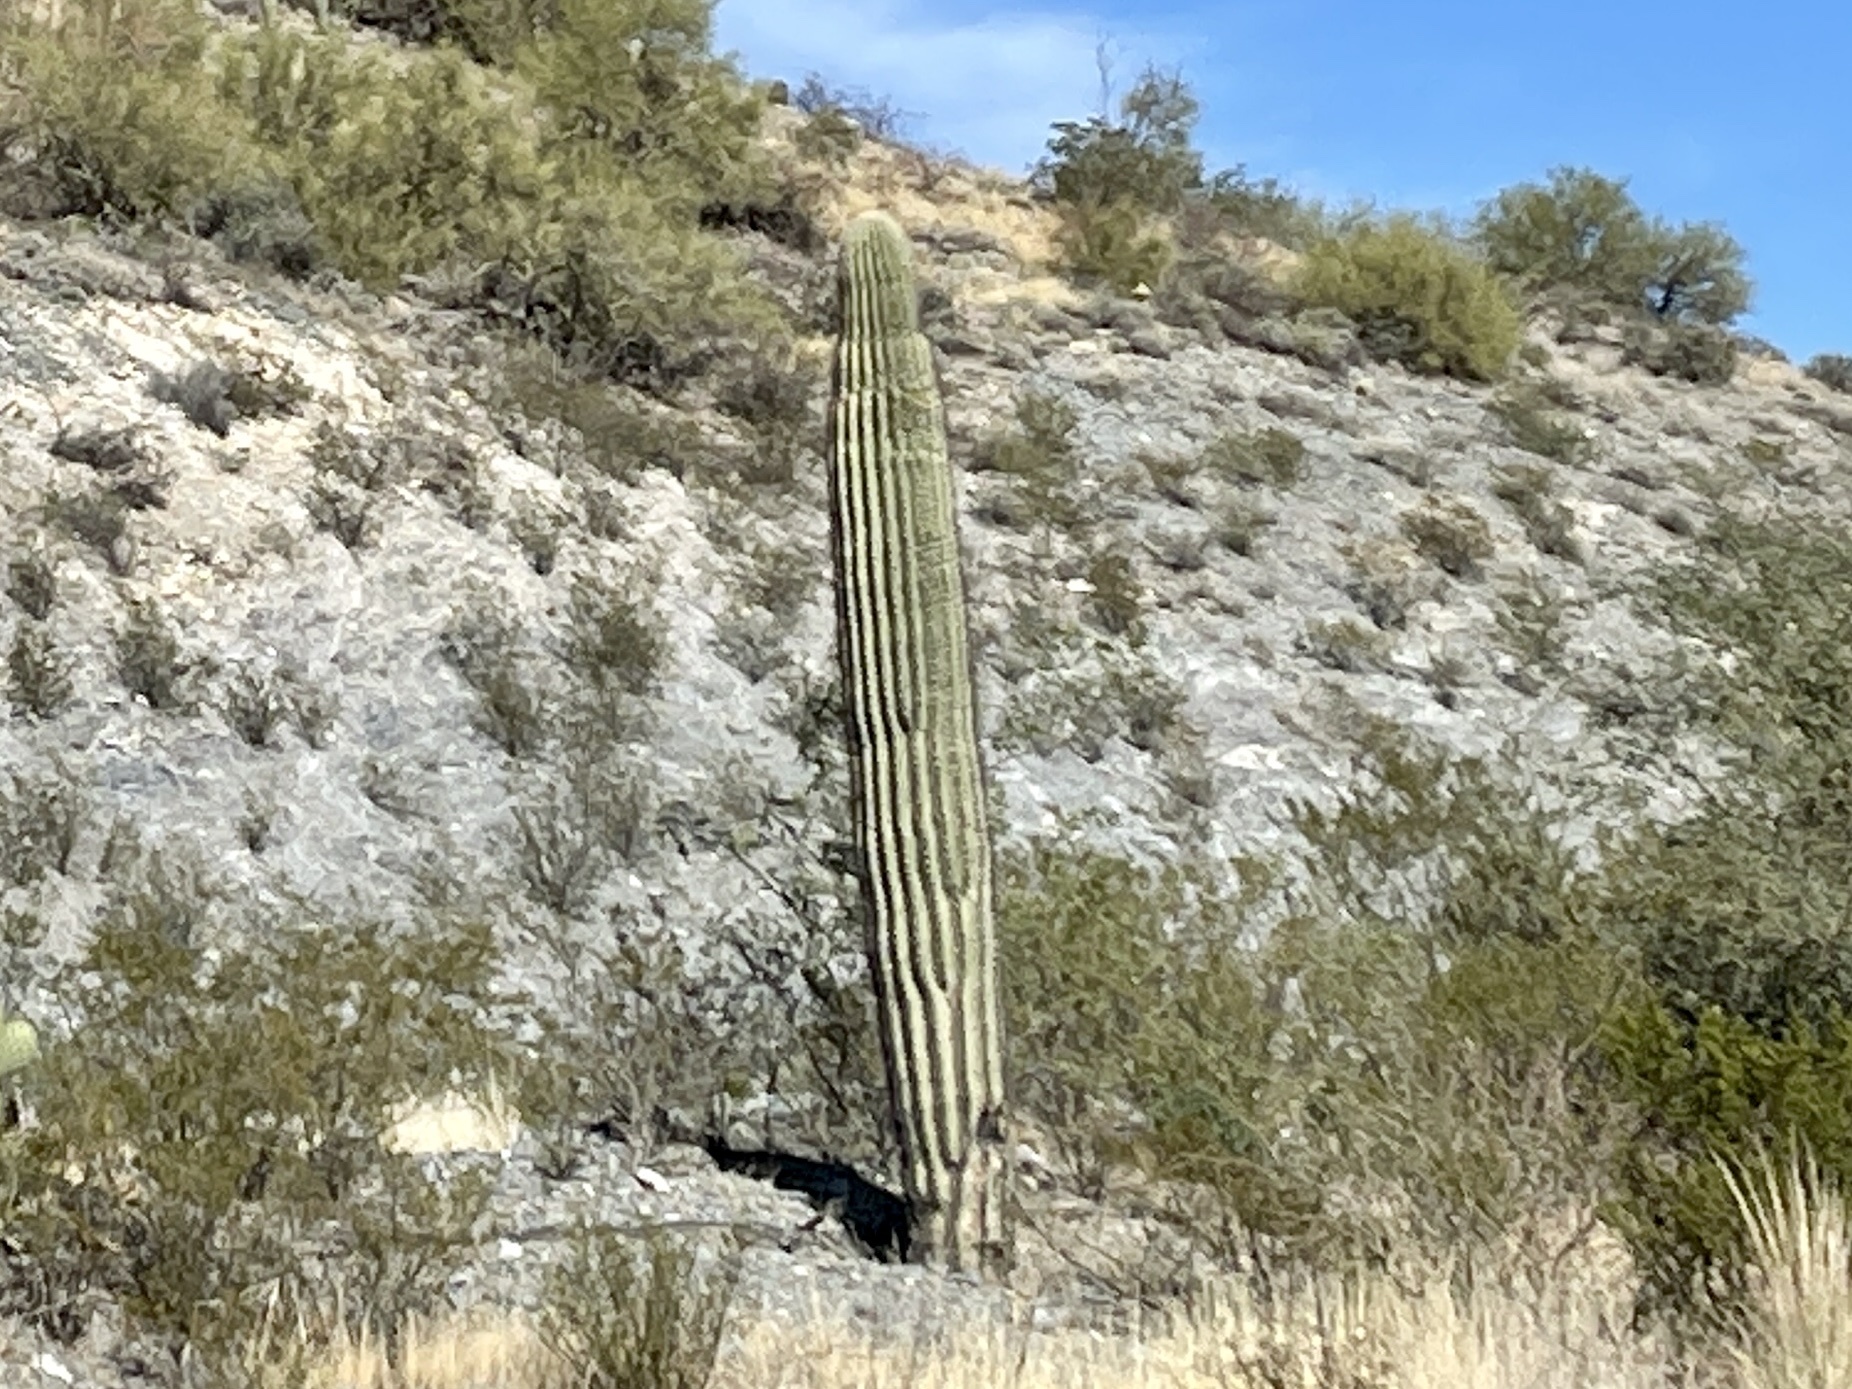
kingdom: Plantae
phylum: Tracheophyta
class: Magnoliopsida
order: Caryophyllales
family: Cactaceae
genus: Carnegiea
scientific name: Carnegiea gigantea
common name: Saguaro
